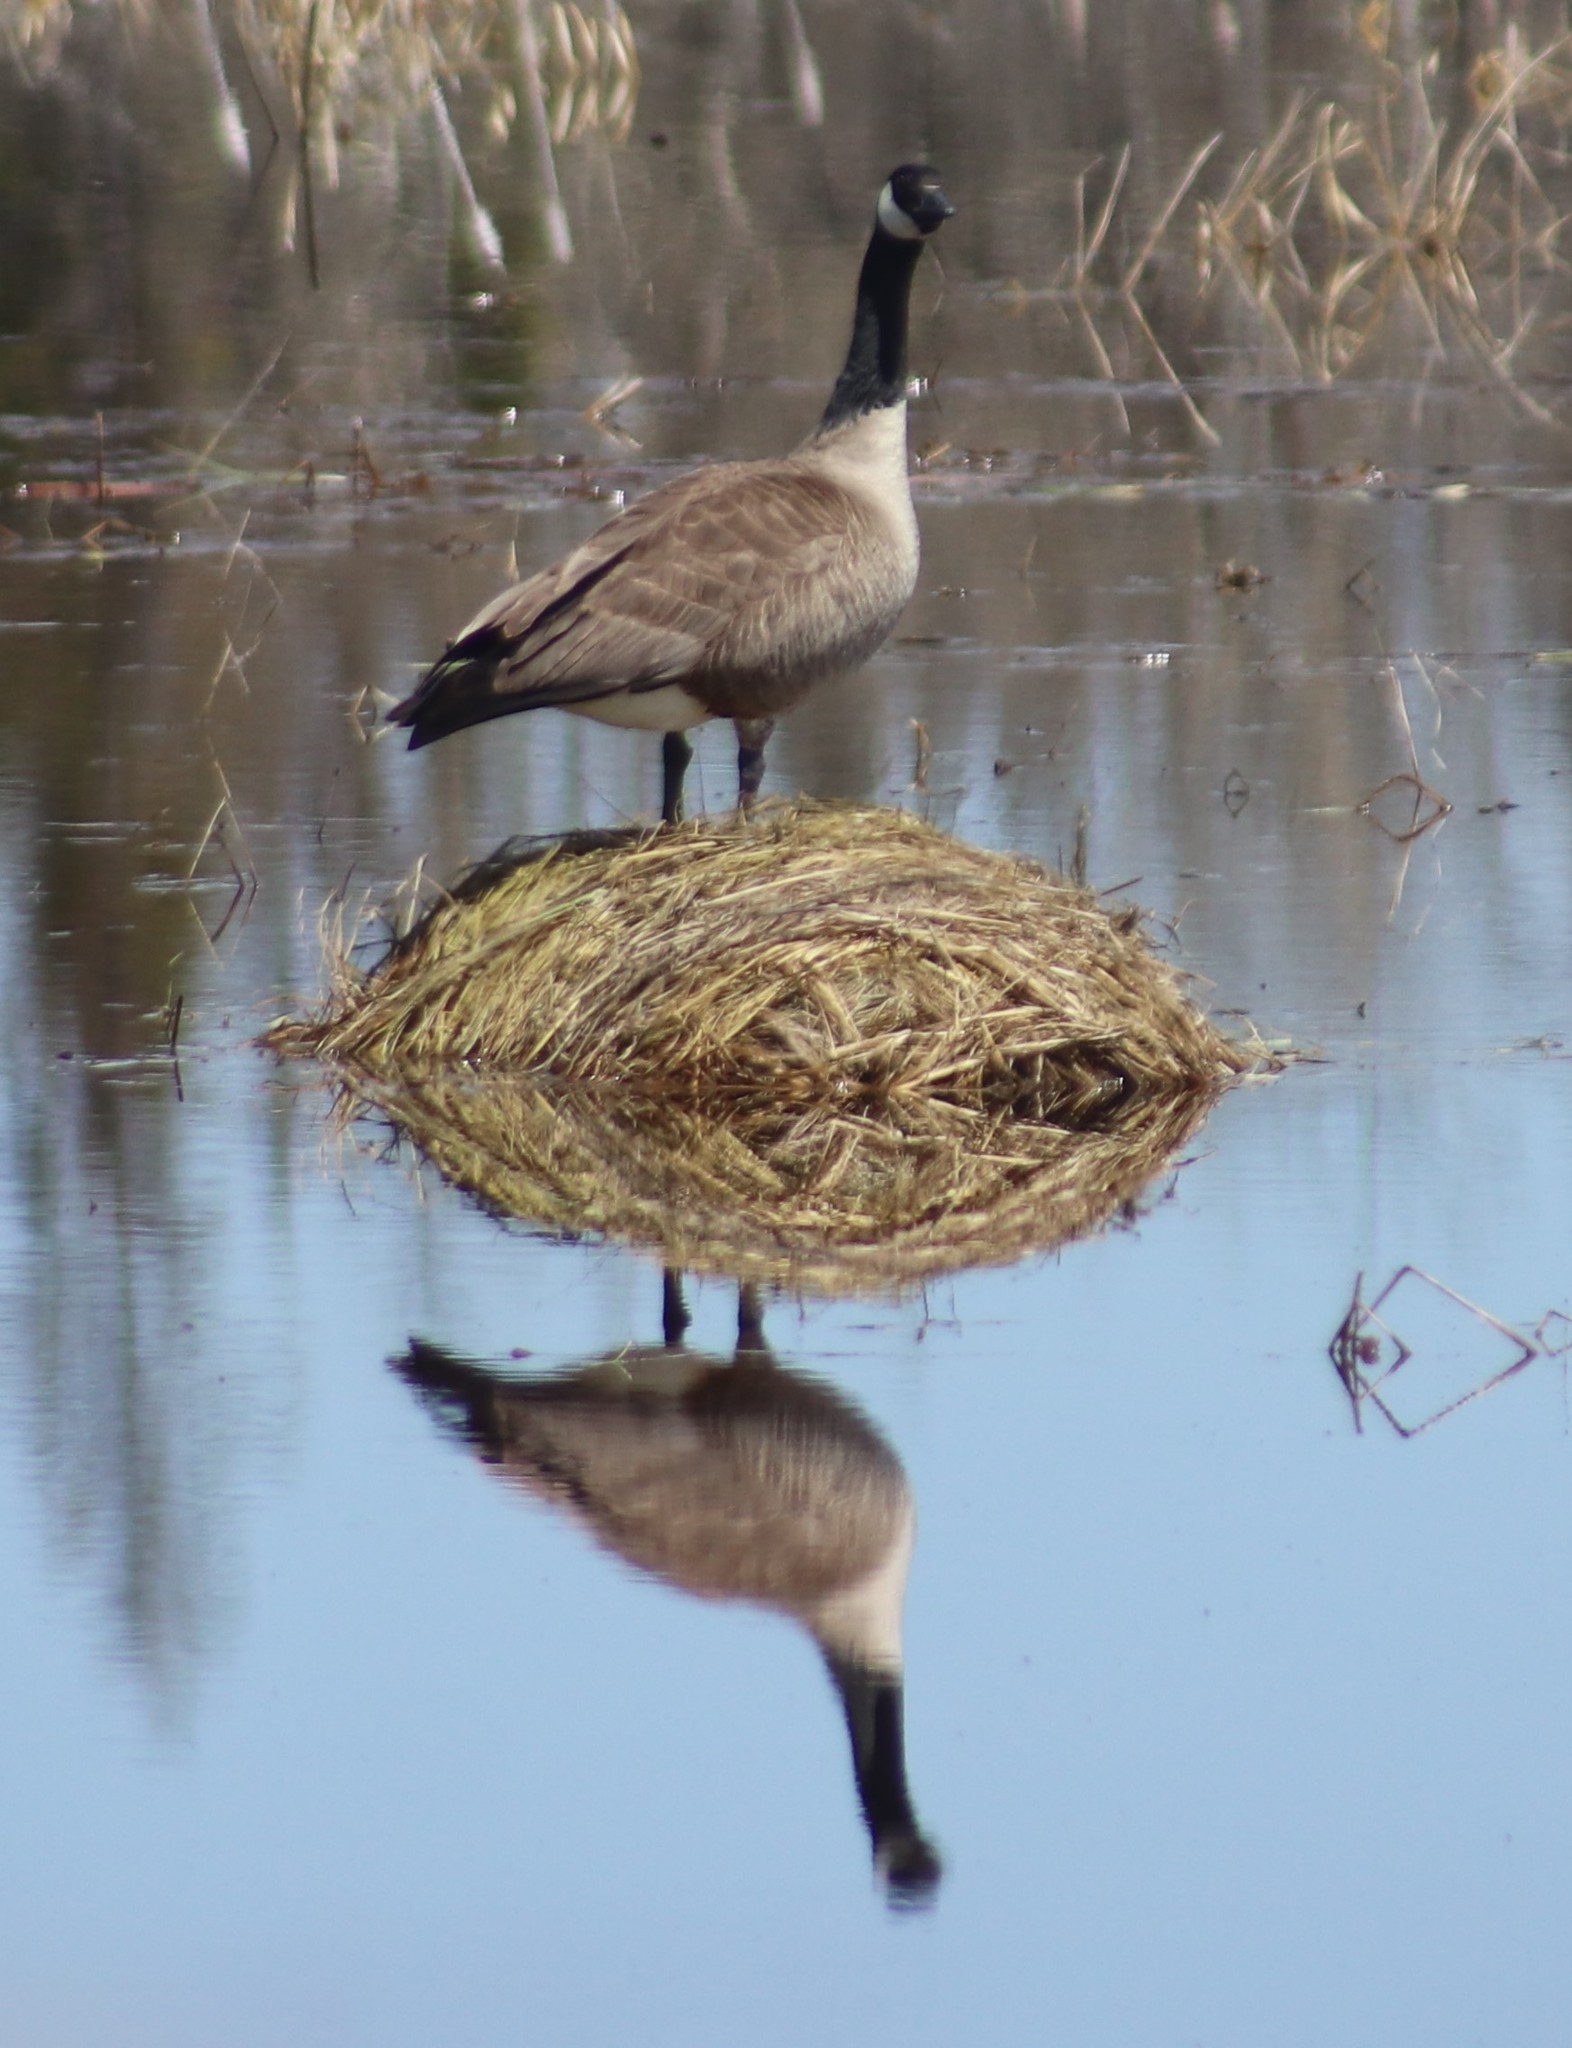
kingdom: Animalia
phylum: Chordata
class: Aves
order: Anseriformes
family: Anatidae
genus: Branta
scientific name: Branta canadensis
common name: Canada goose
